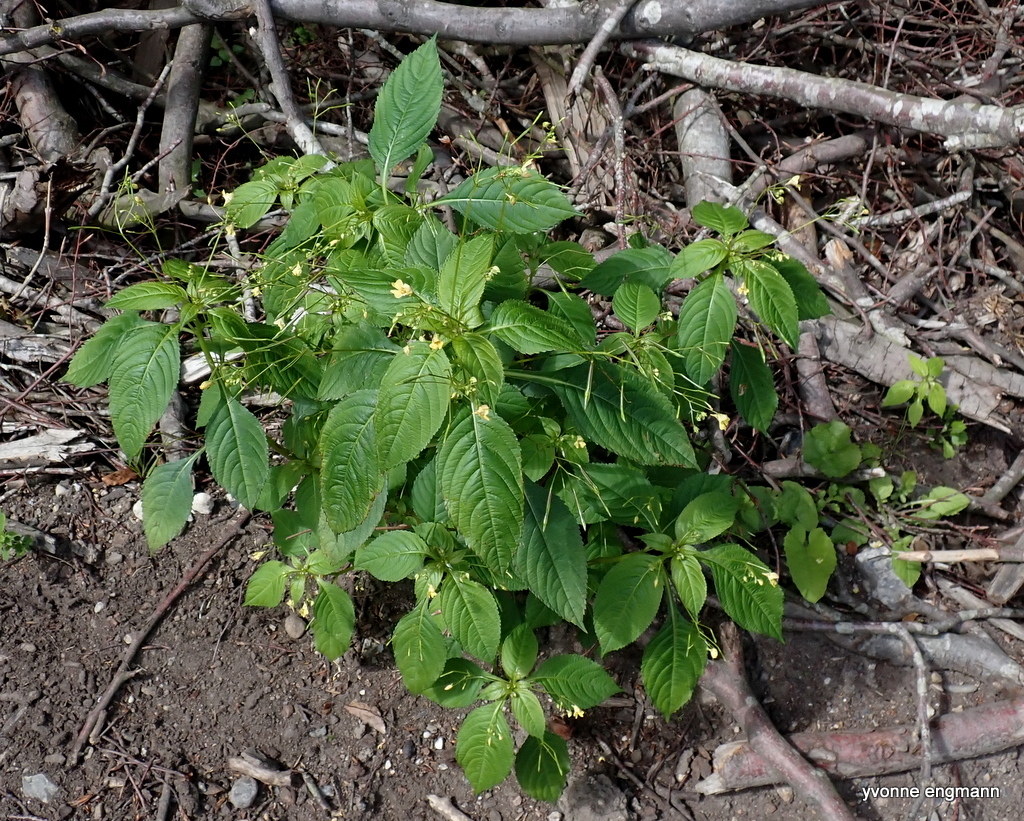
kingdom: Plantae
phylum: Tracheophyta
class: Magnoliopsida
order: Ericales
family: Balsaminaceae
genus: Impatiens
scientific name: Impatiens parviflora
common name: Small balsam
